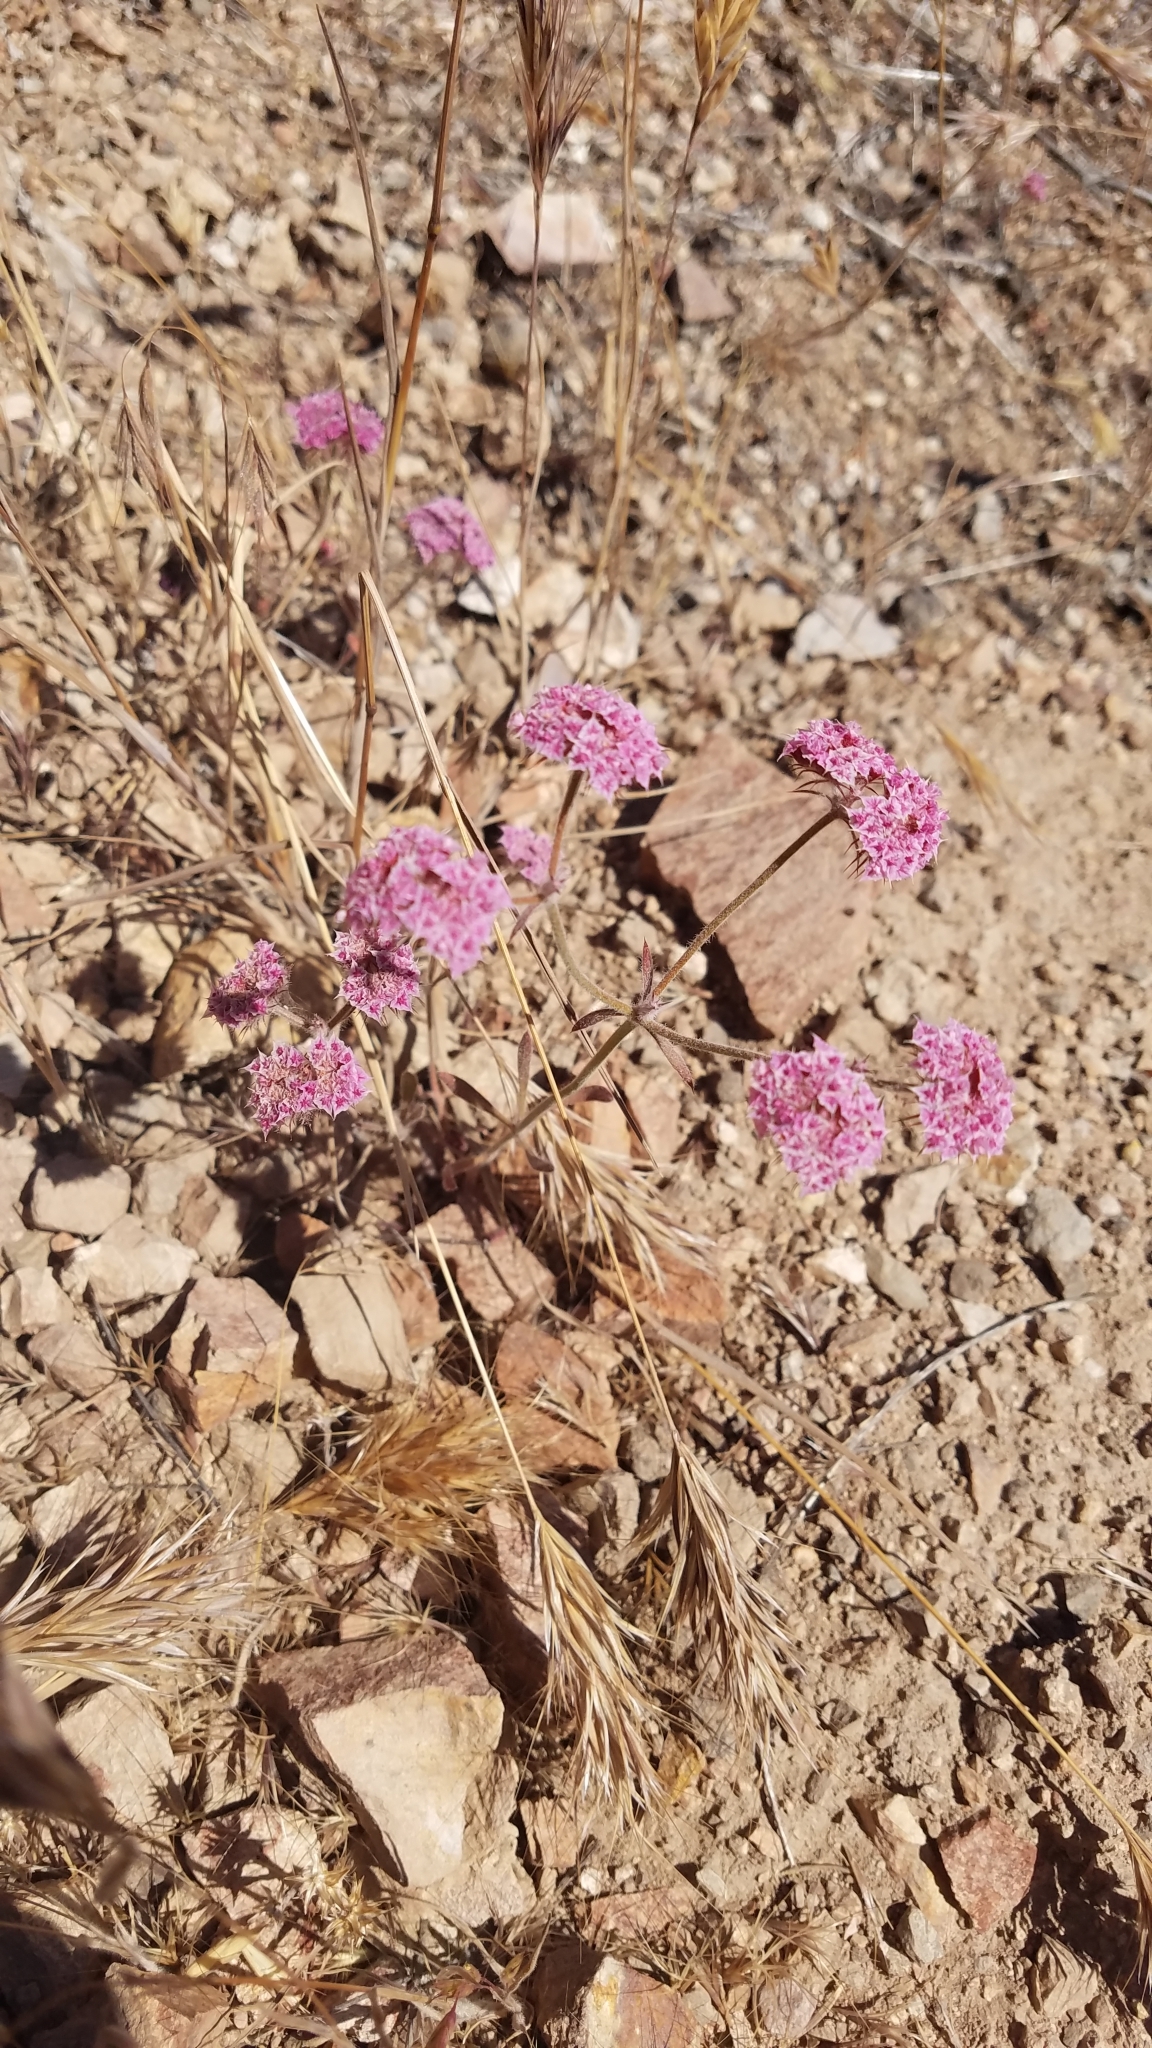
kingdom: Plantae
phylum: Tracheophyta
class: Magnoliopsida
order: Caryophyllales
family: Polygonaceae
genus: Chorizanthe
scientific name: Chorizanthe douglasii
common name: Douglas's spineflower
